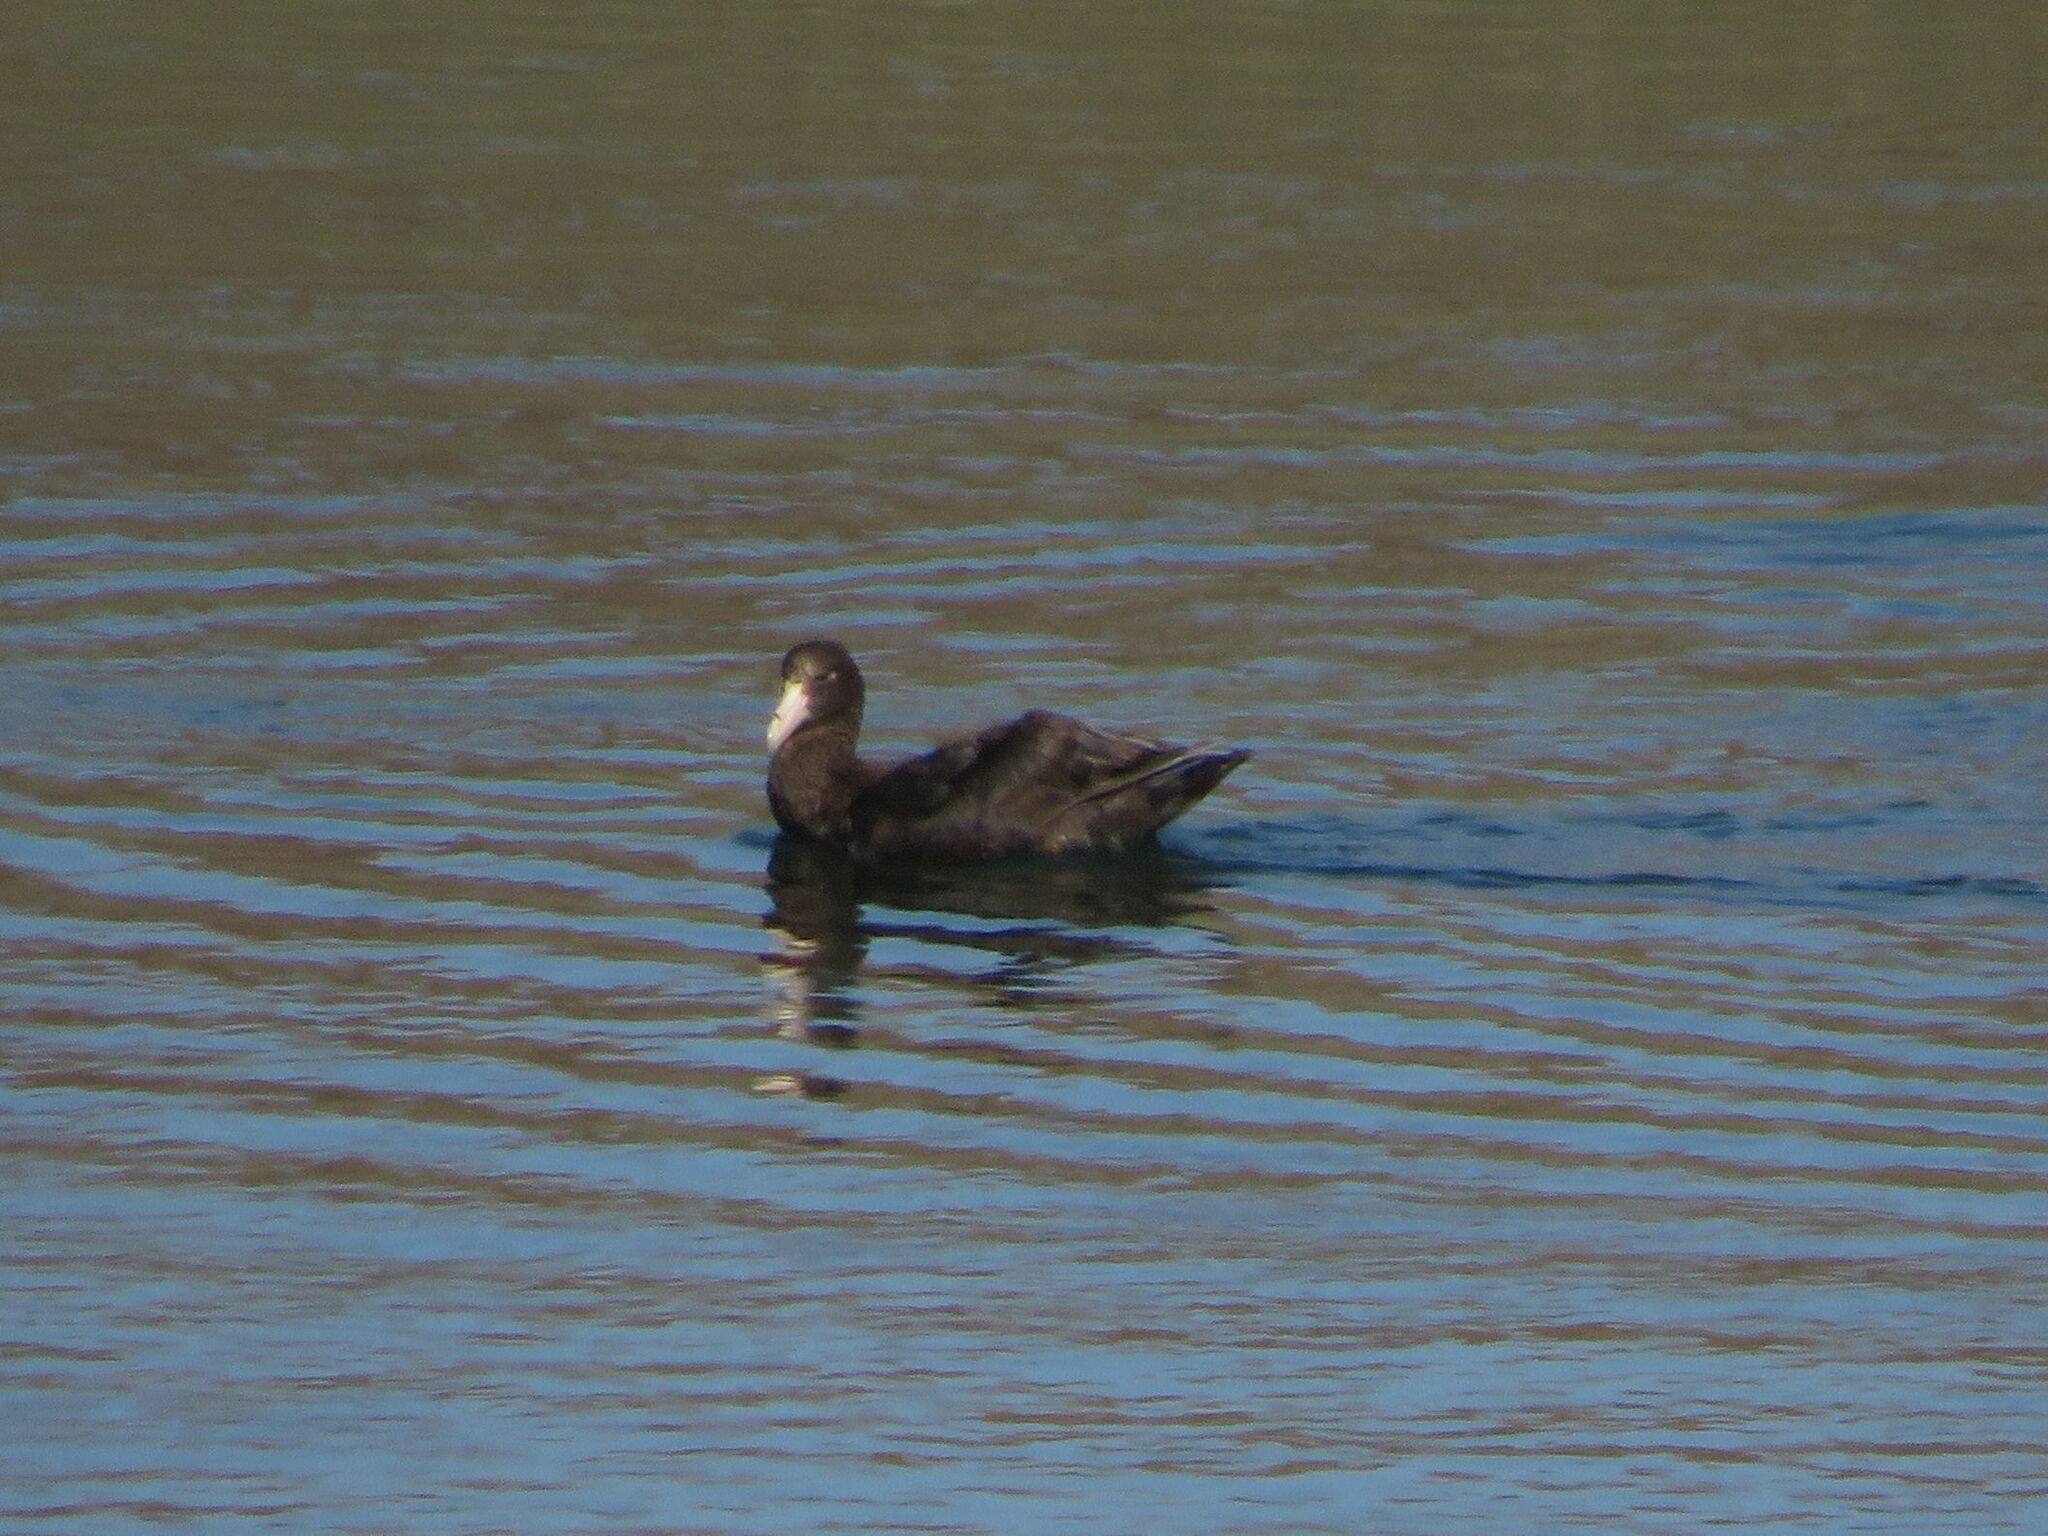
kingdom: Animalia
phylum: Chordata
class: Aves
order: Procellariiformes
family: Procellariidae
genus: Macronectes
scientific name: Macronectes giganteus
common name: Southern giant petrel
